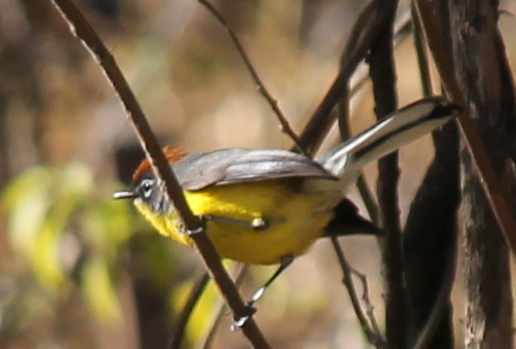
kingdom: Animalia
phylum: Chordata
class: Aves
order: Passeriformes
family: Parulidae
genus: Myioborus
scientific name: Myioborus brunniceps
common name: Brown-capped whitestart
